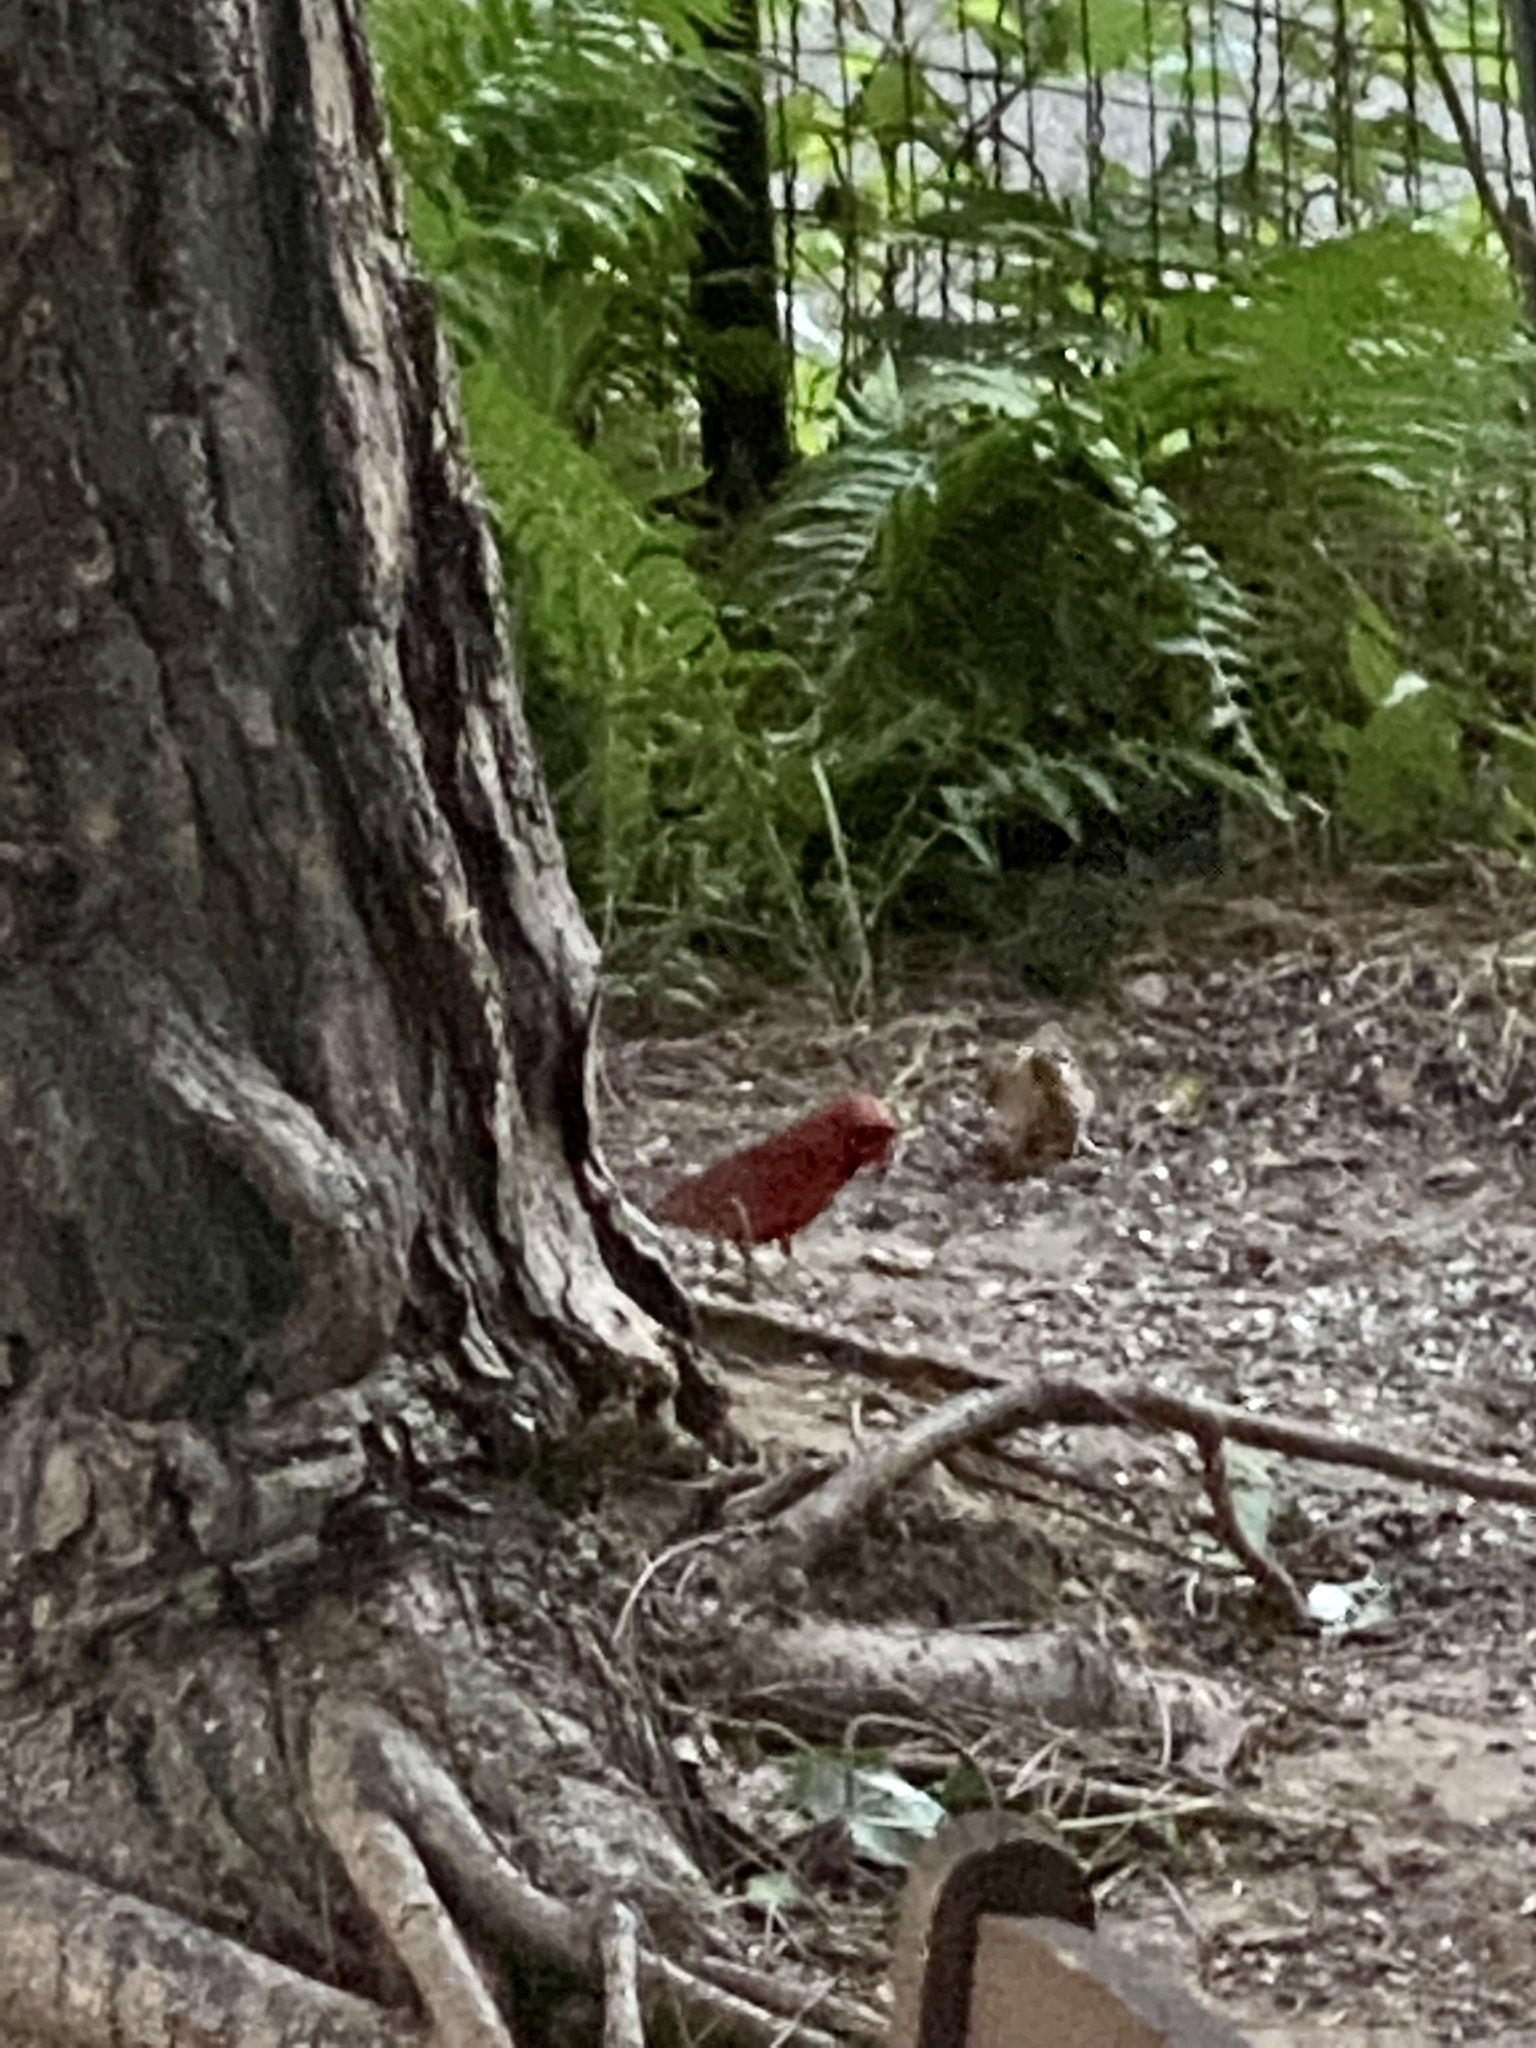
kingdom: Animalia
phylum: Chordata
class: Aves
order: Passeriformes
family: Cardinalidae
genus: Cardinalis
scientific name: Cardinalis cardinalis
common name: Northern cardinal
